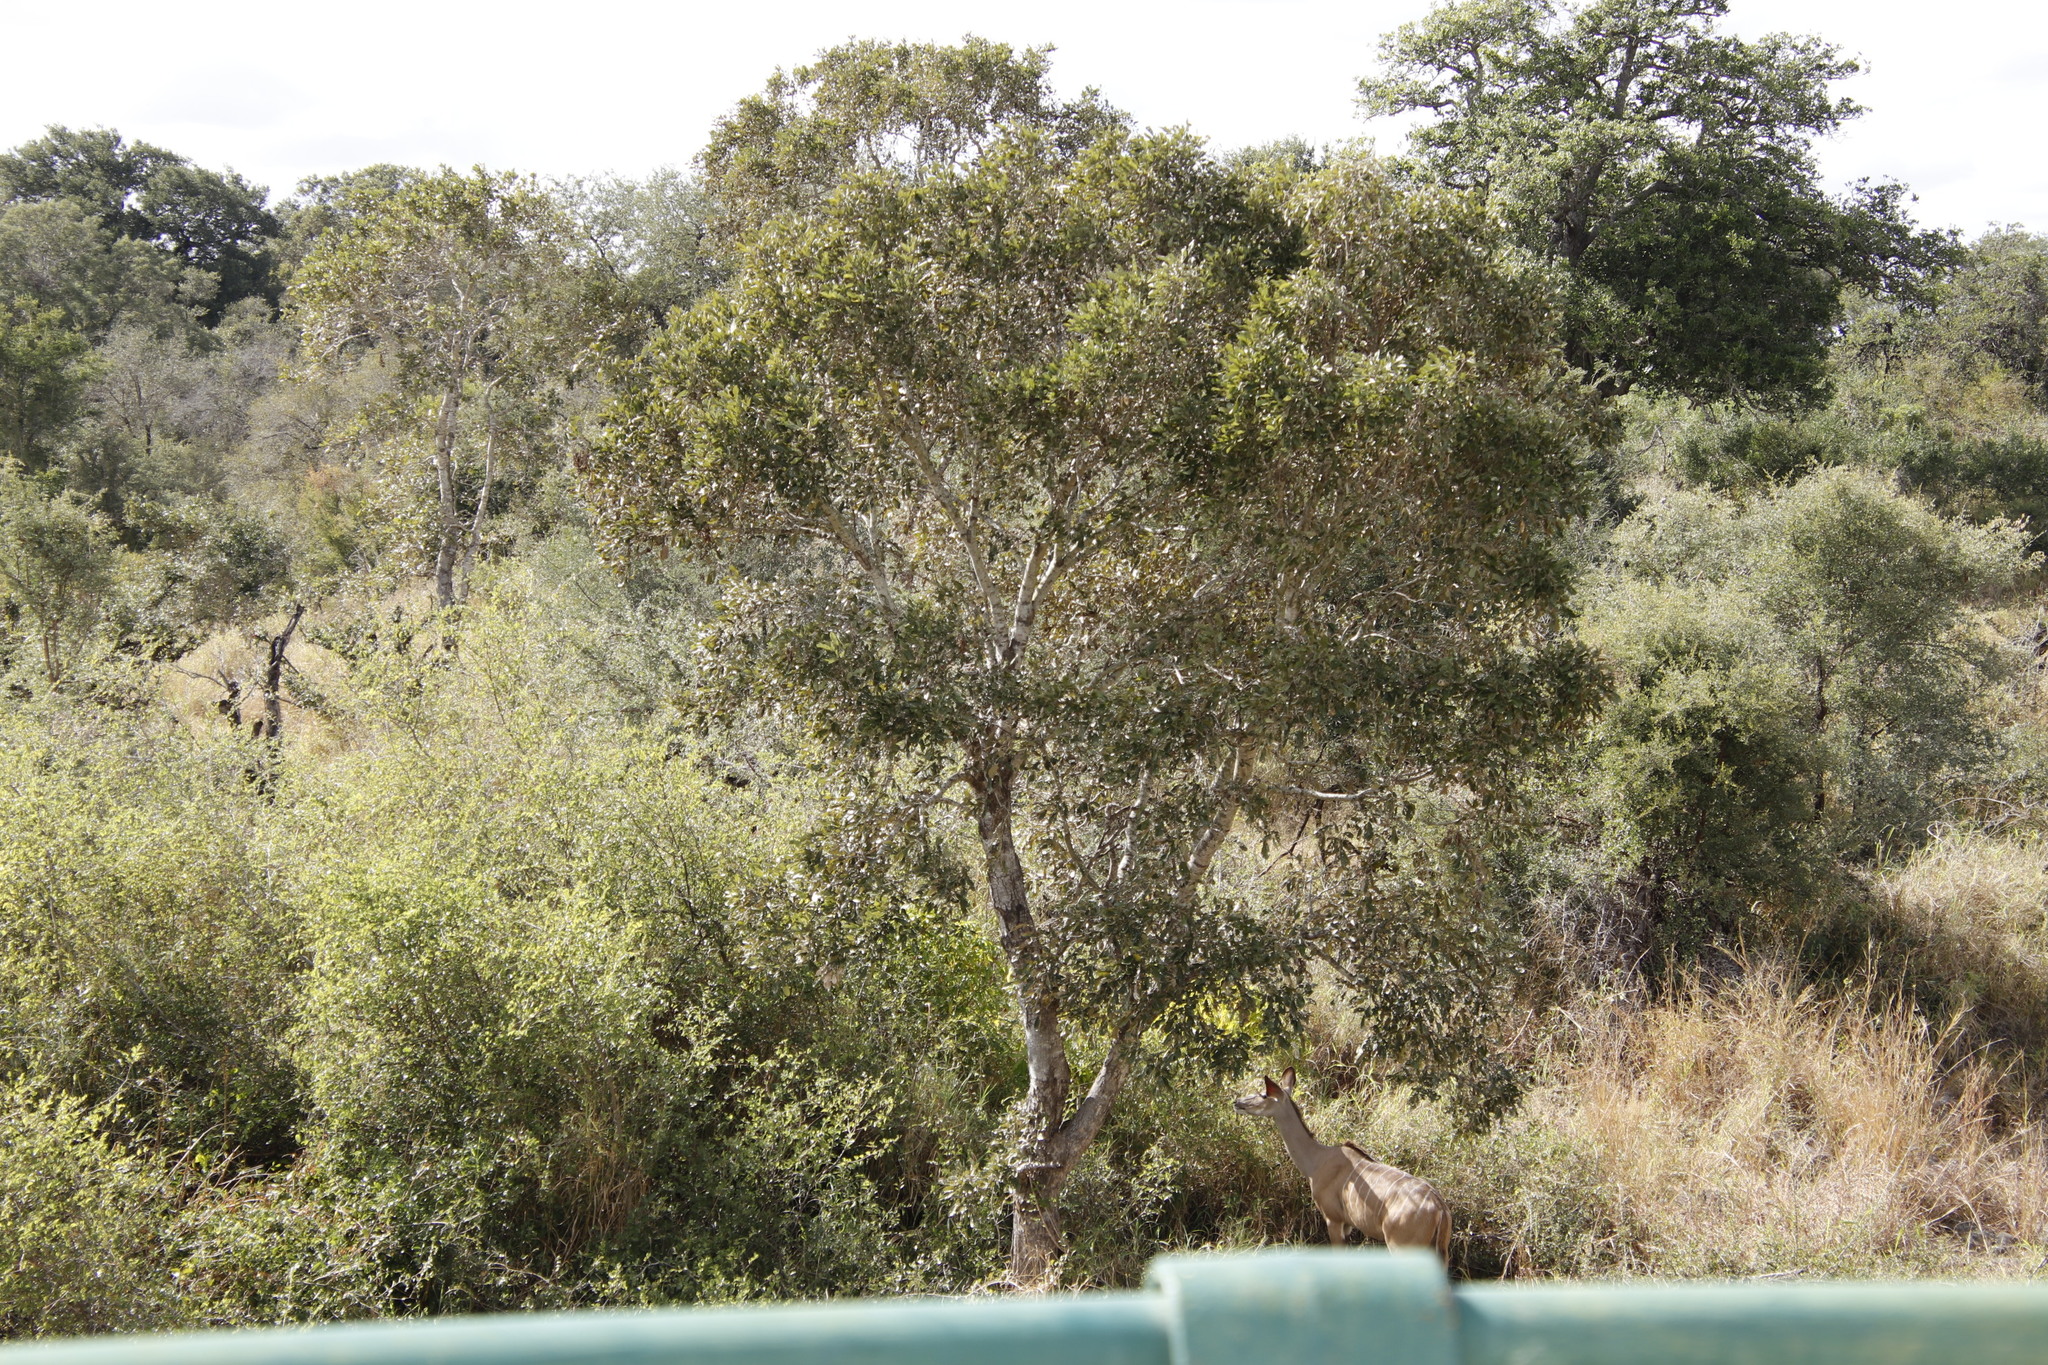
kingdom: Plantae
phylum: Tracheophyta
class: Magnoliopsida
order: Fabales
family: Fabaceae
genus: Philenoptera
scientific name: Philenoptera violacea
